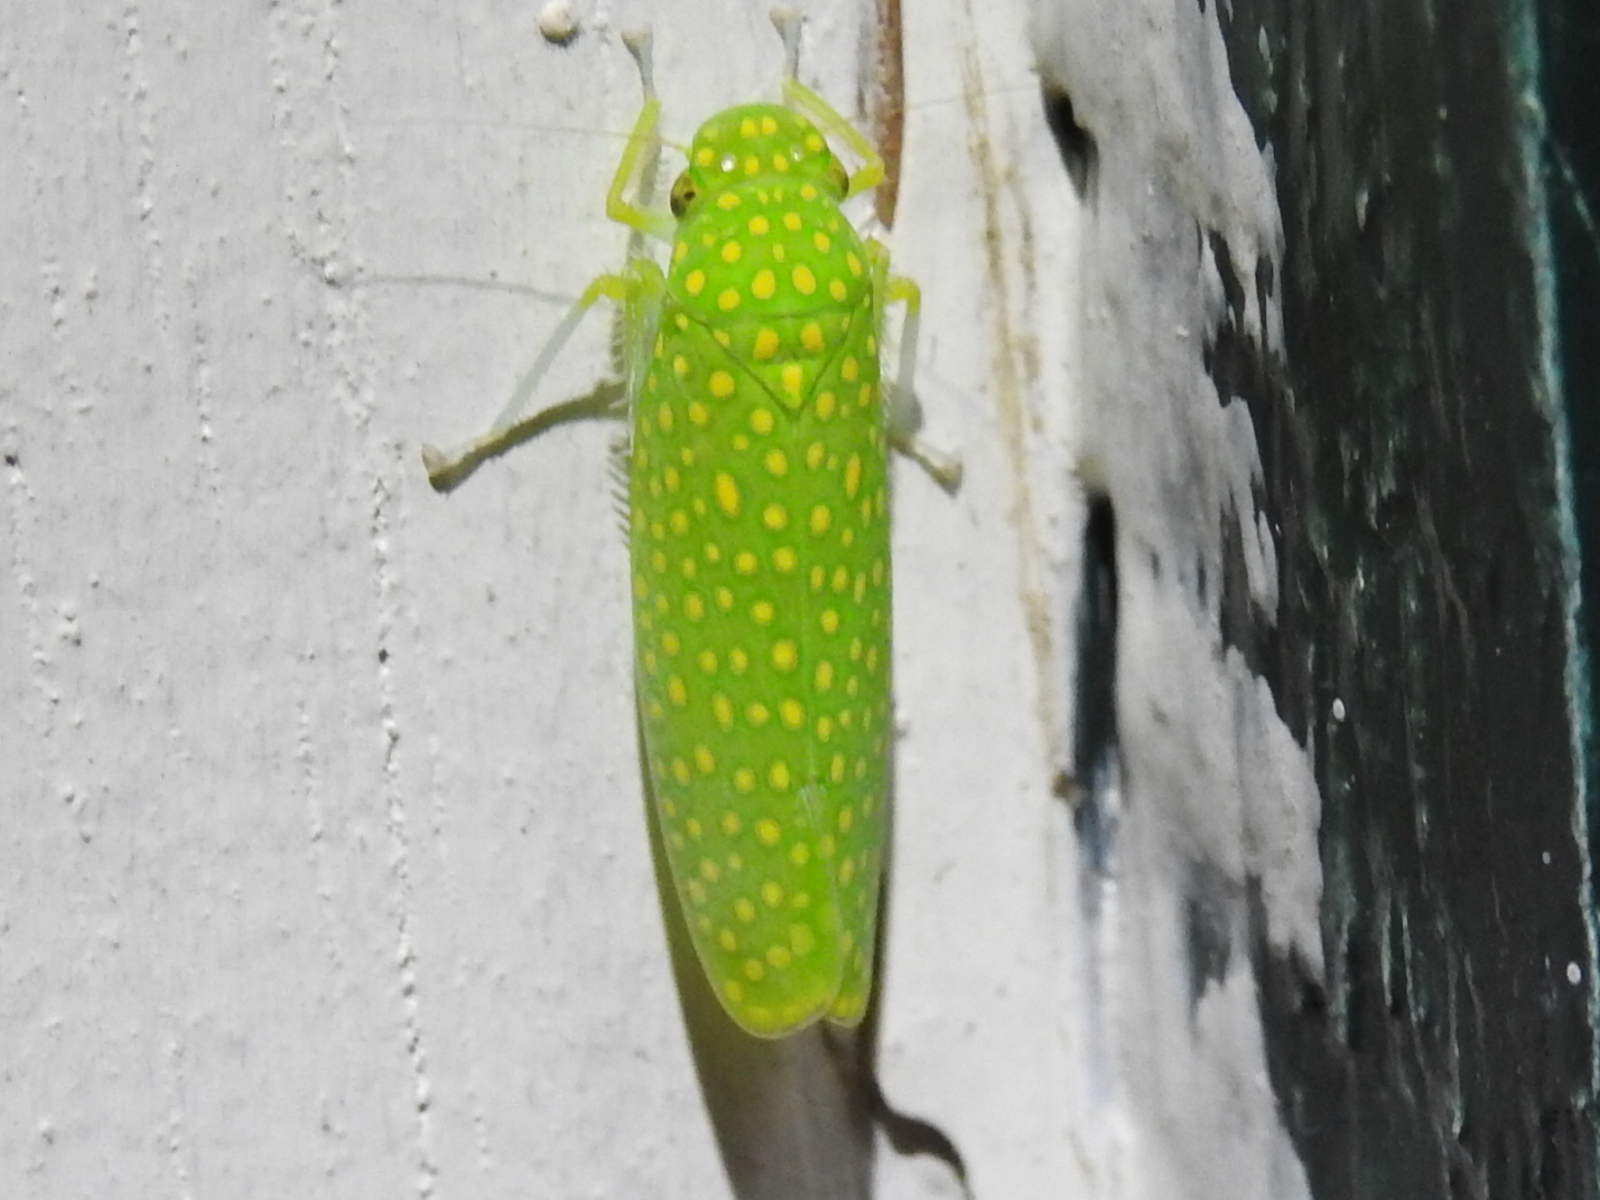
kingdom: Animalia
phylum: Arthropoda
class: Insecta
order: Hemiptera
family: Cicadellidae
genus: Paromenia
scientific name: Paromenia isabellina
